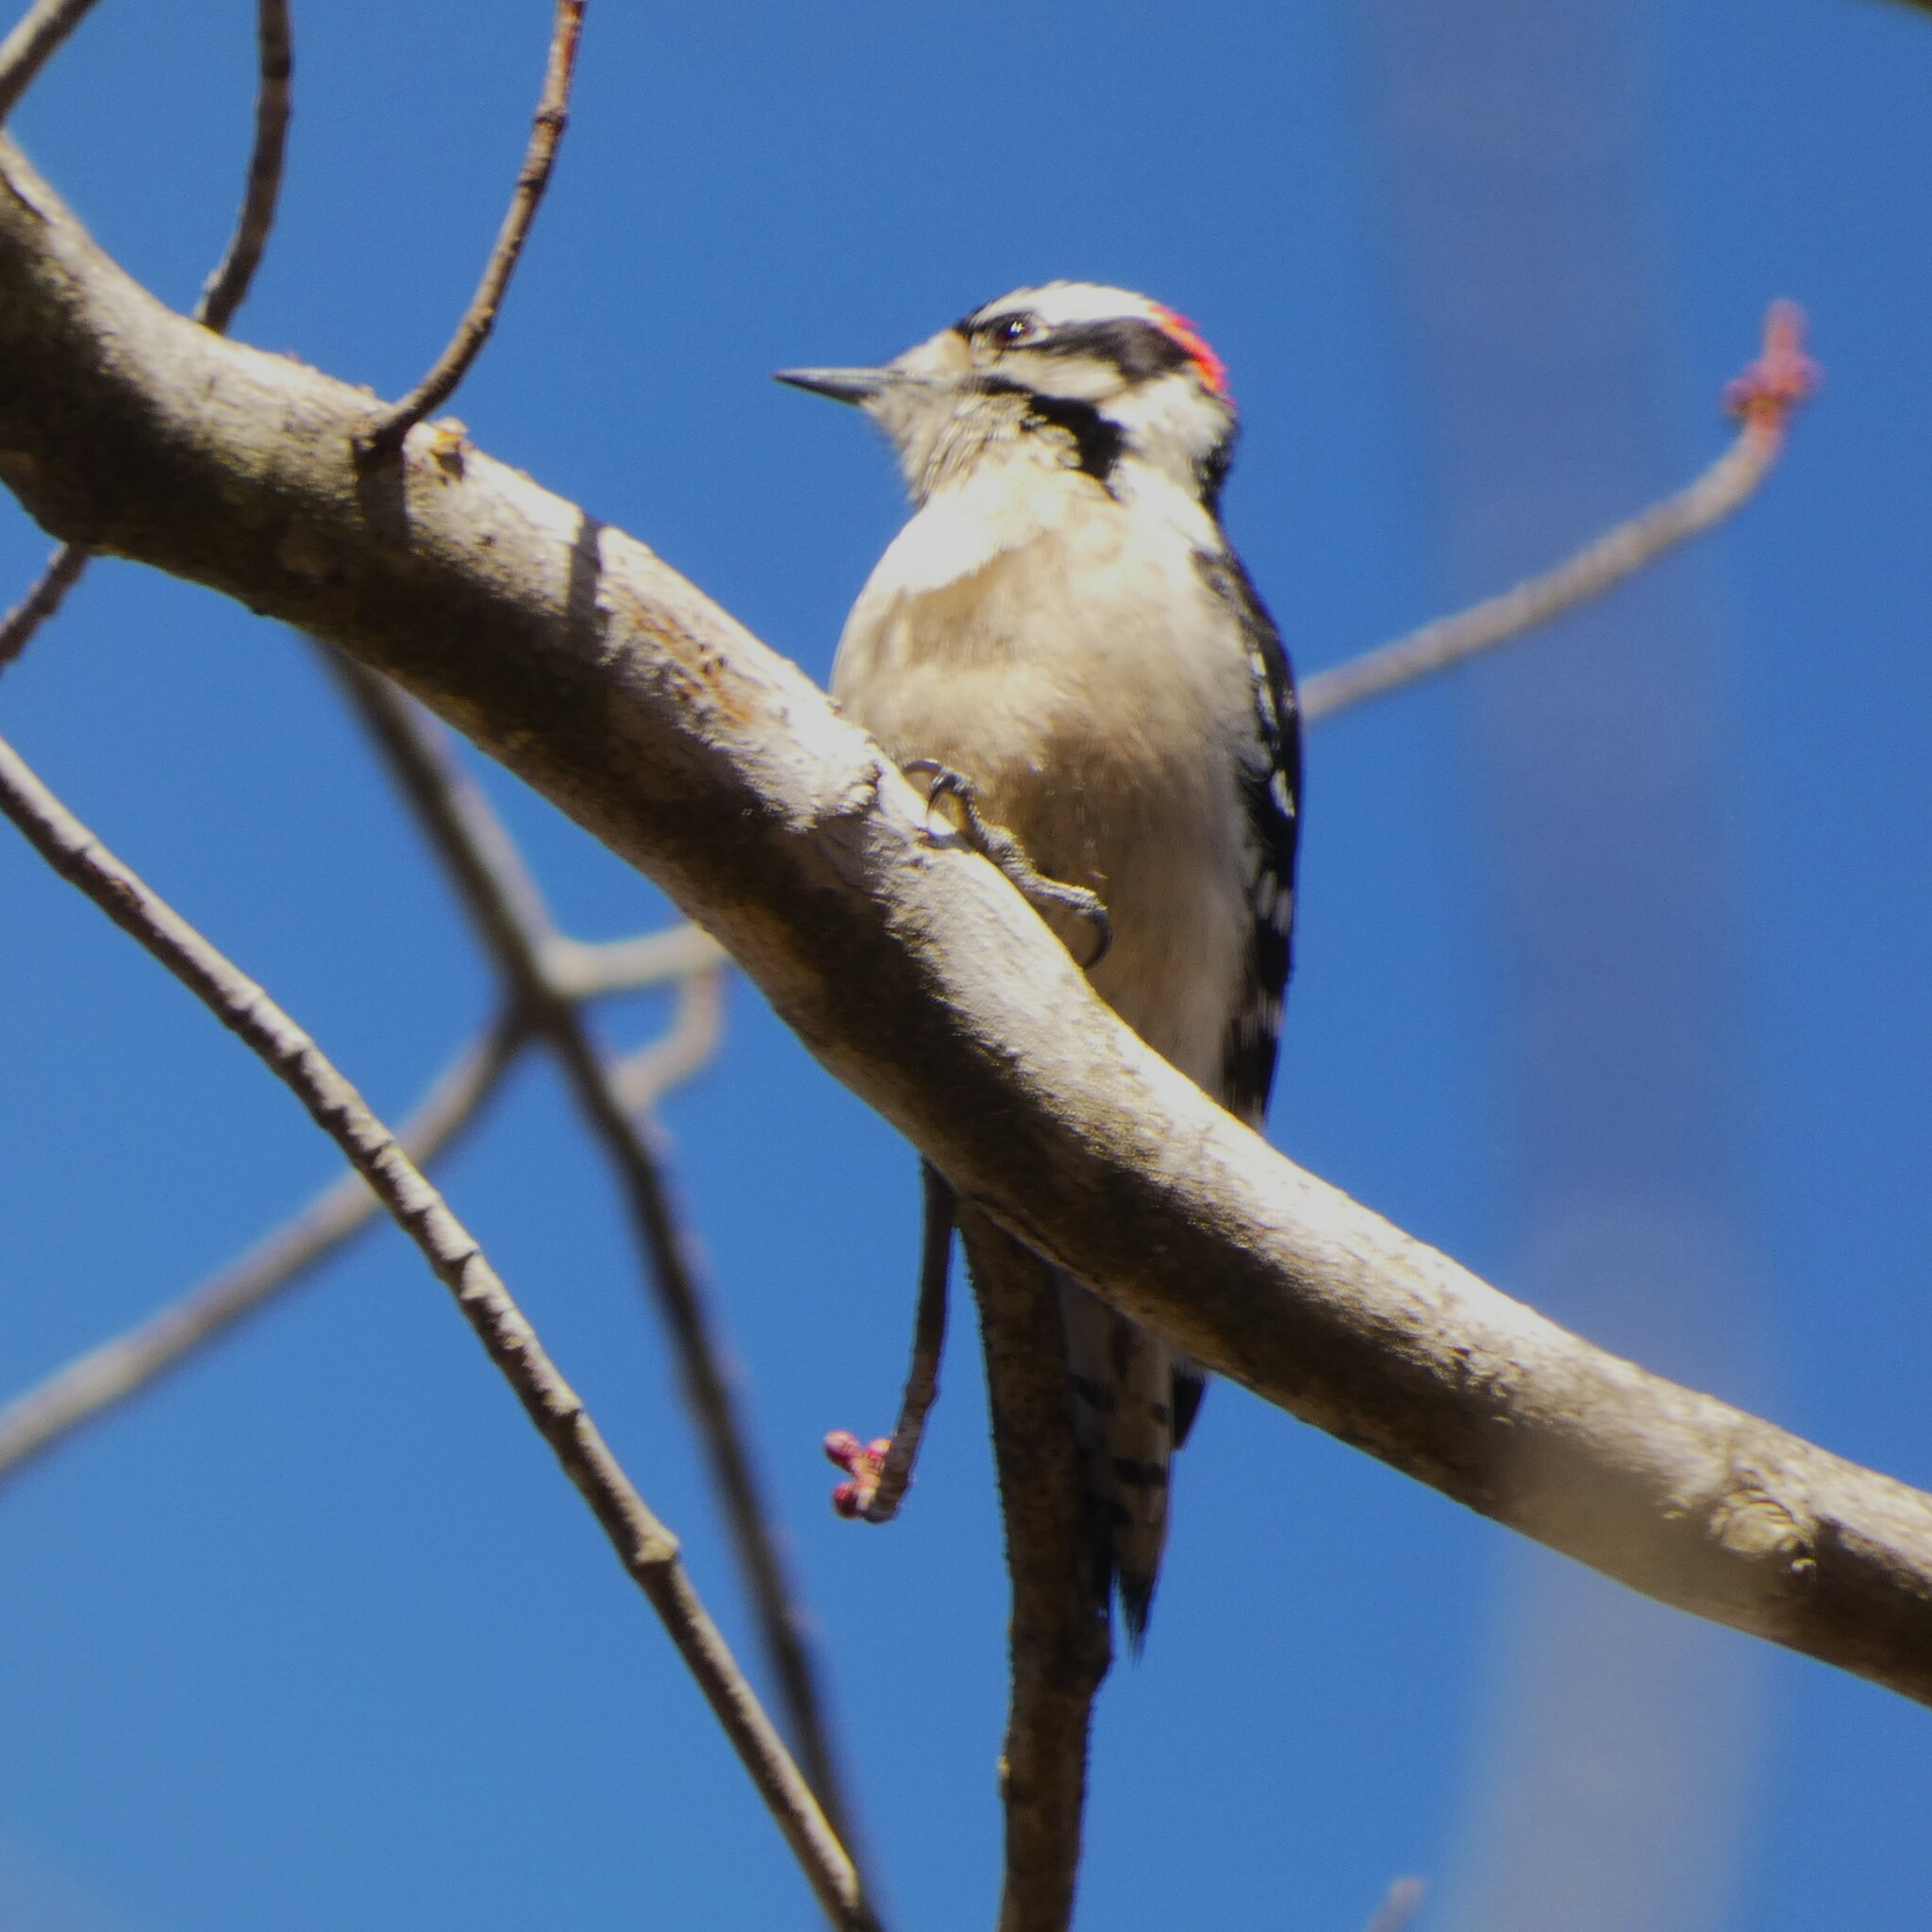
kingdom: Animalia
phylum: Chordata
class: Aves
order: Piciformes
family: Picidae
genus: Dryobates
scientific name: Dryobates pubescens
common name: Downy woodpecker
